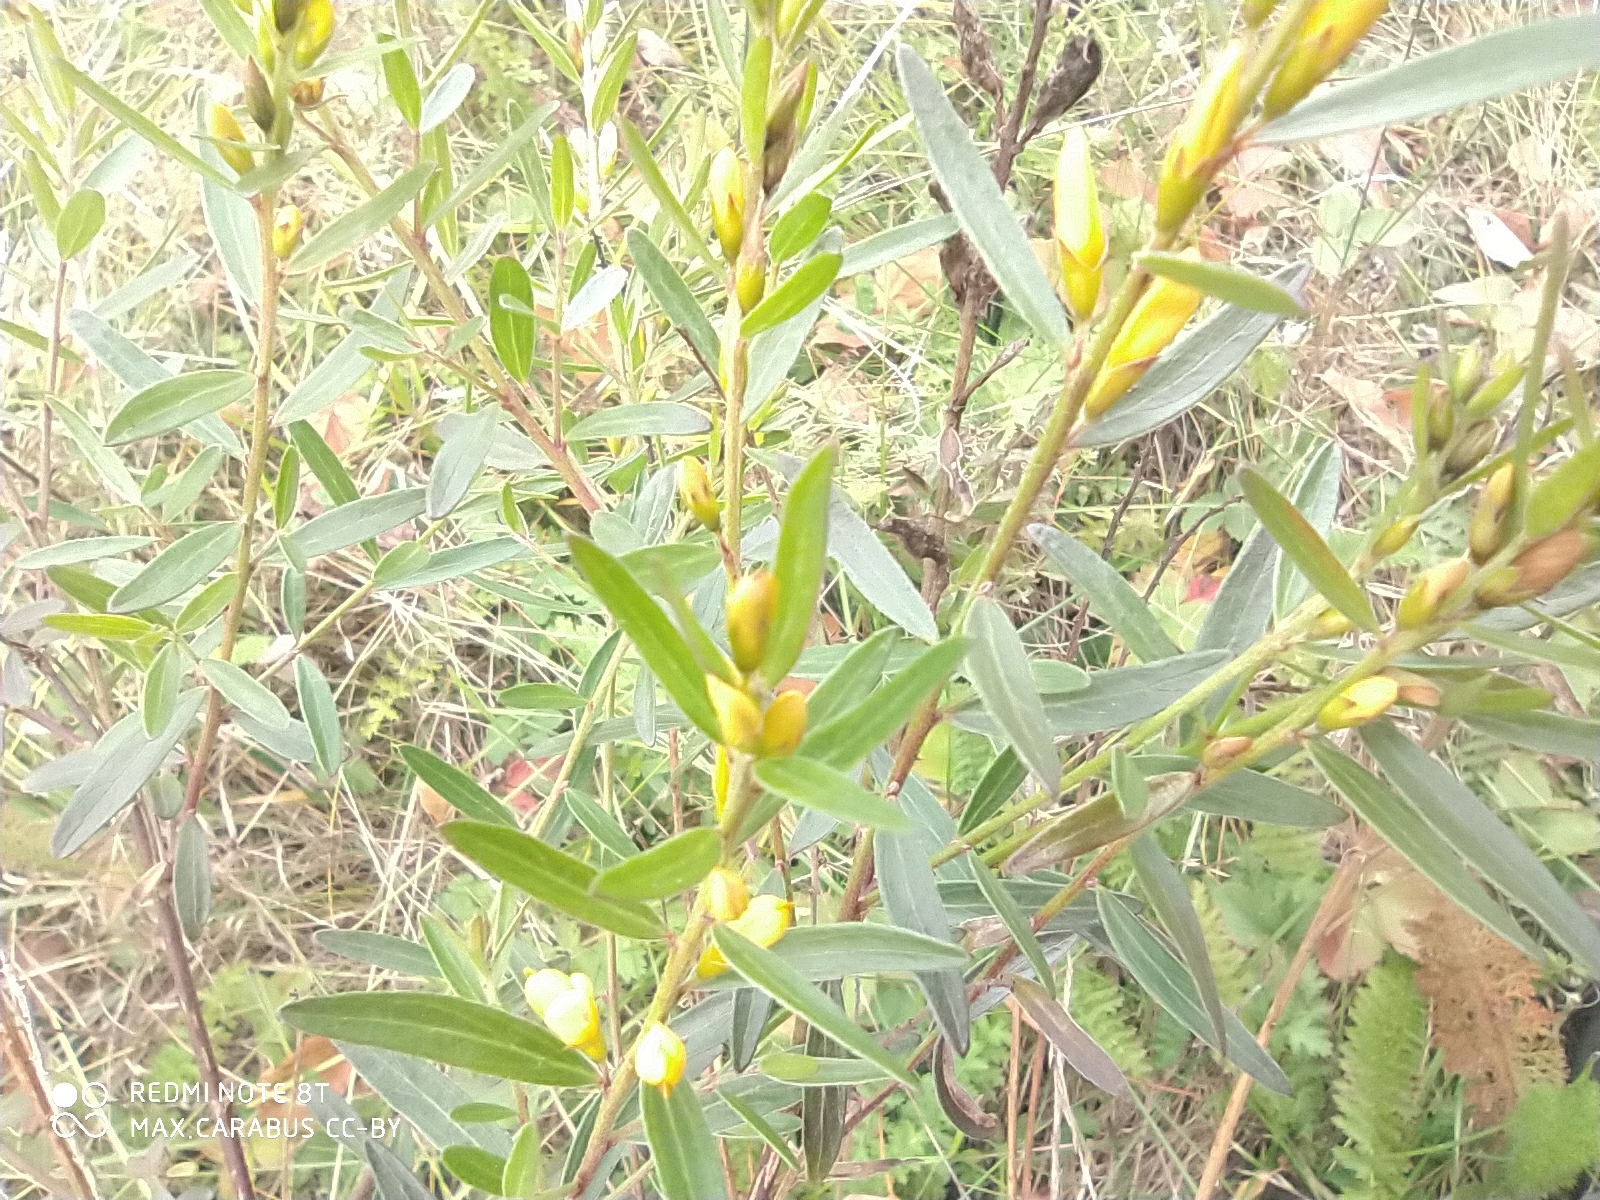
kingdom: Plantae
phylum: Tracheophyta
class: Magnoliopsida
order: Fabales
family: Fabaceae
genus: Genista
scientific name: Genista tinctoria
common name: Dyer's greenweed
